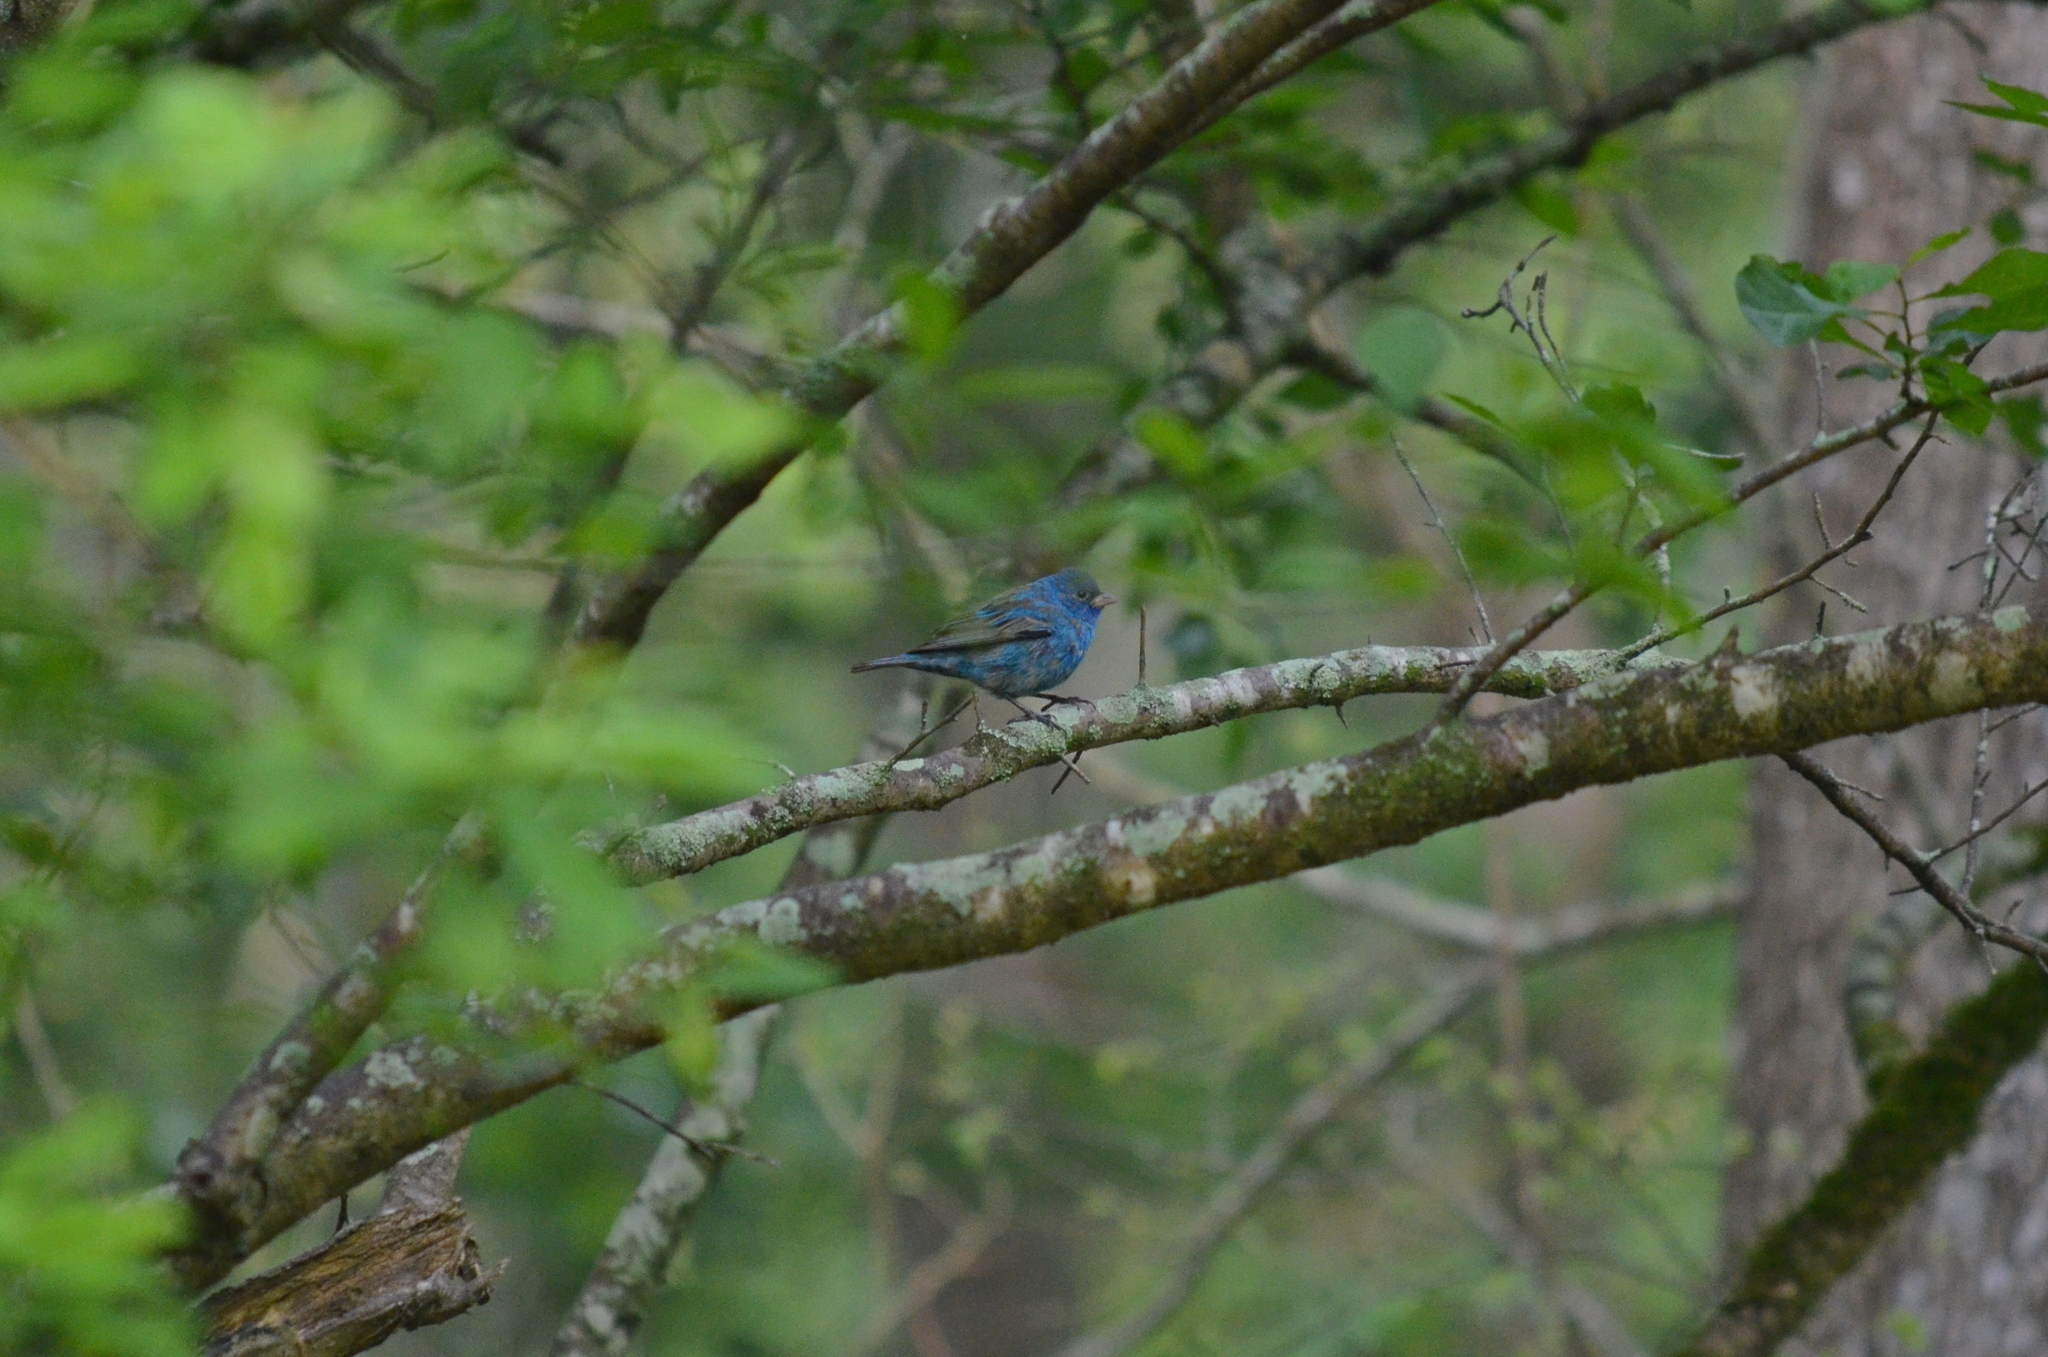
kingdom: Animalia
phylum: Chordata
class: Aves
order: Passeriformes
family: Cardinalidae
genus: Passerina
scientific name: Passerina cyanea
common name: Indigo bunting
